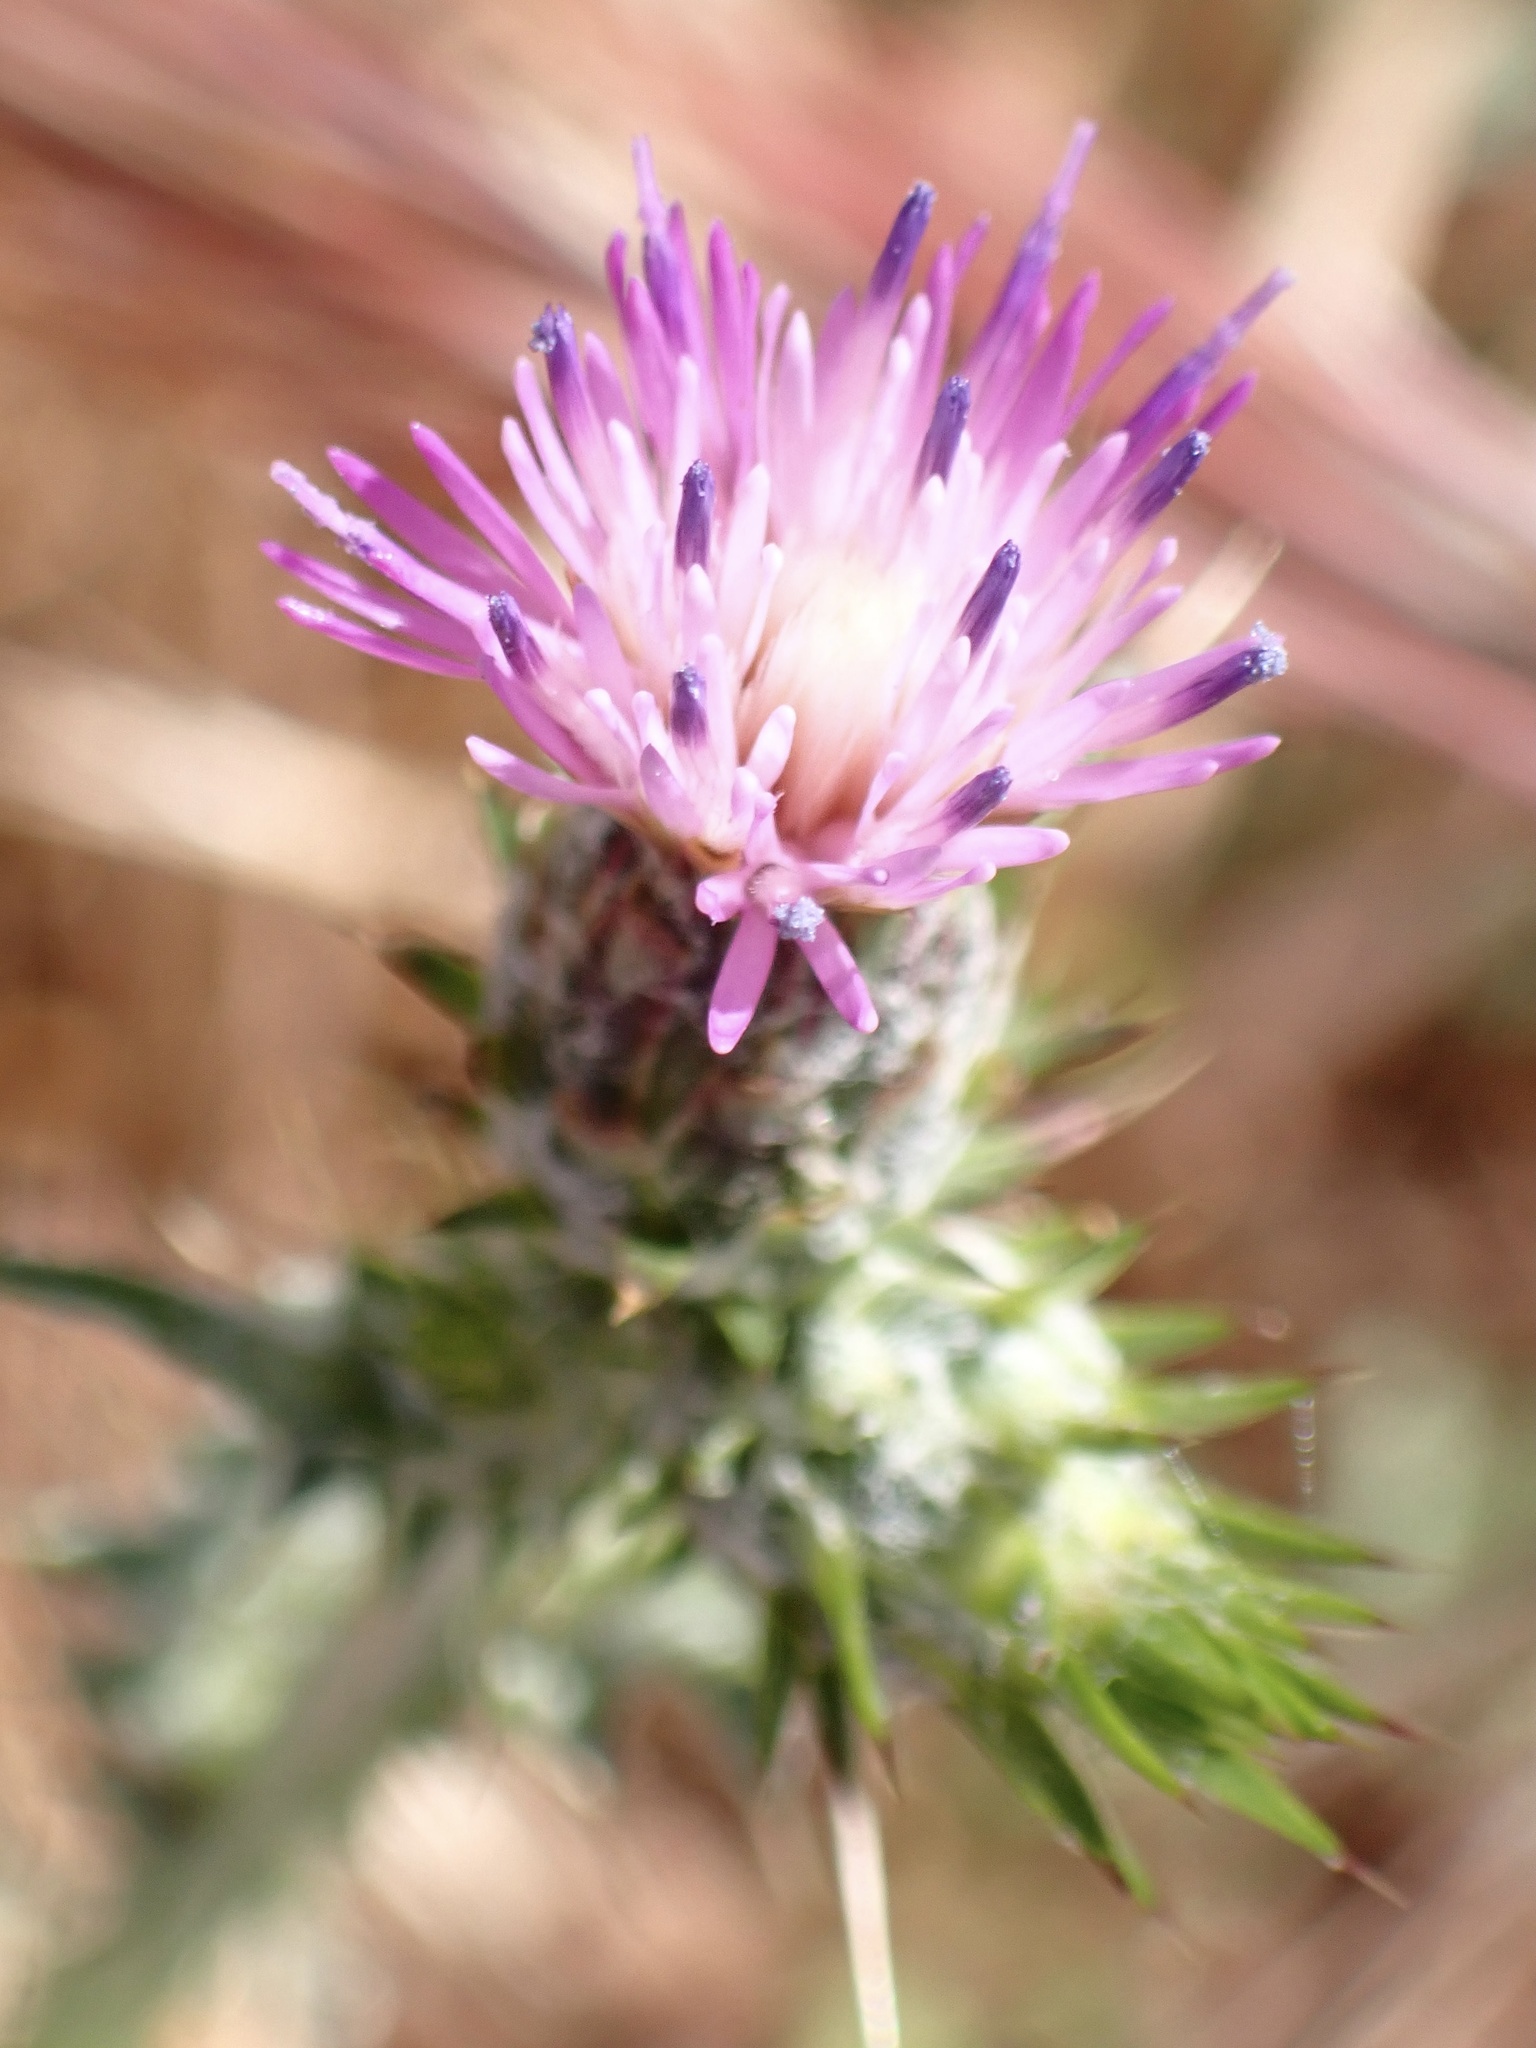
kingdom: Plantae
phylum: Tracheophyta
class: Magnoliopsida
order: Asterales
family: Asteraceae
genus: Carduus
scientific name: Carduus pycnocephalus
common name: Plymouth thistle
